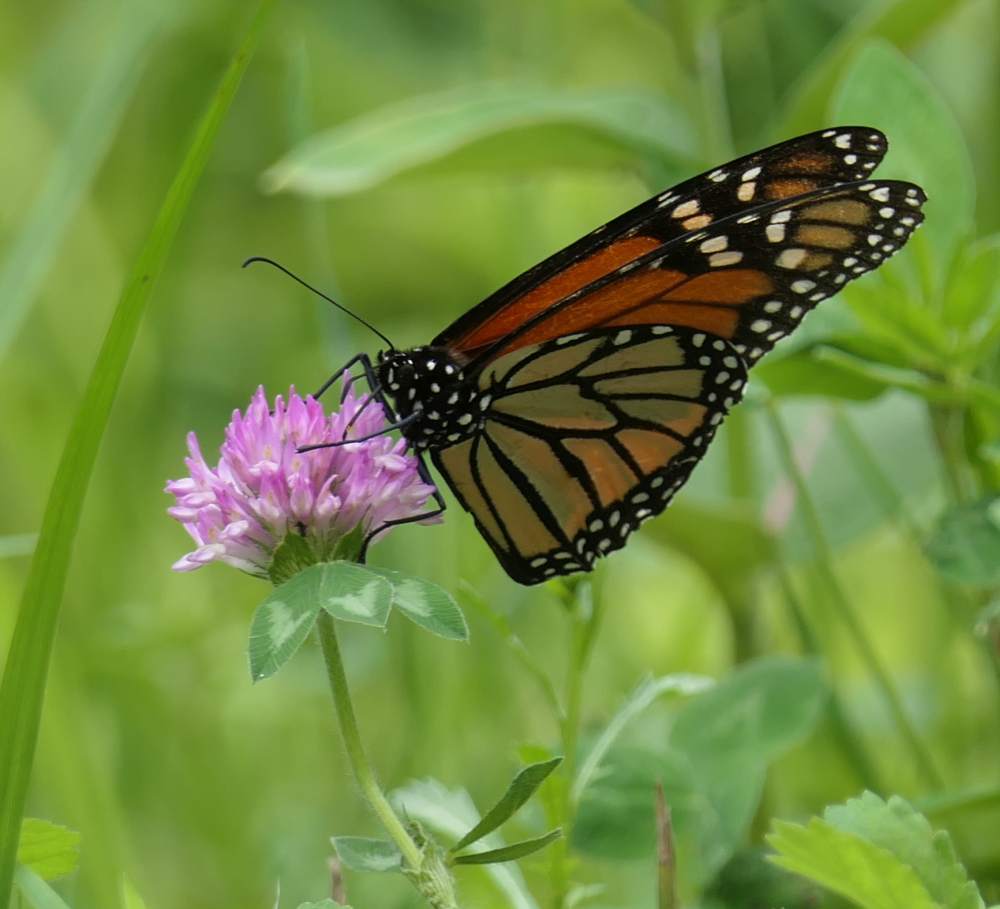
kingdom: Animalia
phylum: Arthropoda
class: Insecta
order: Lepidoptera
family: Nymphalidae
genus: Danaus
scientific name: Danaus plexippus
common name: Monarch
